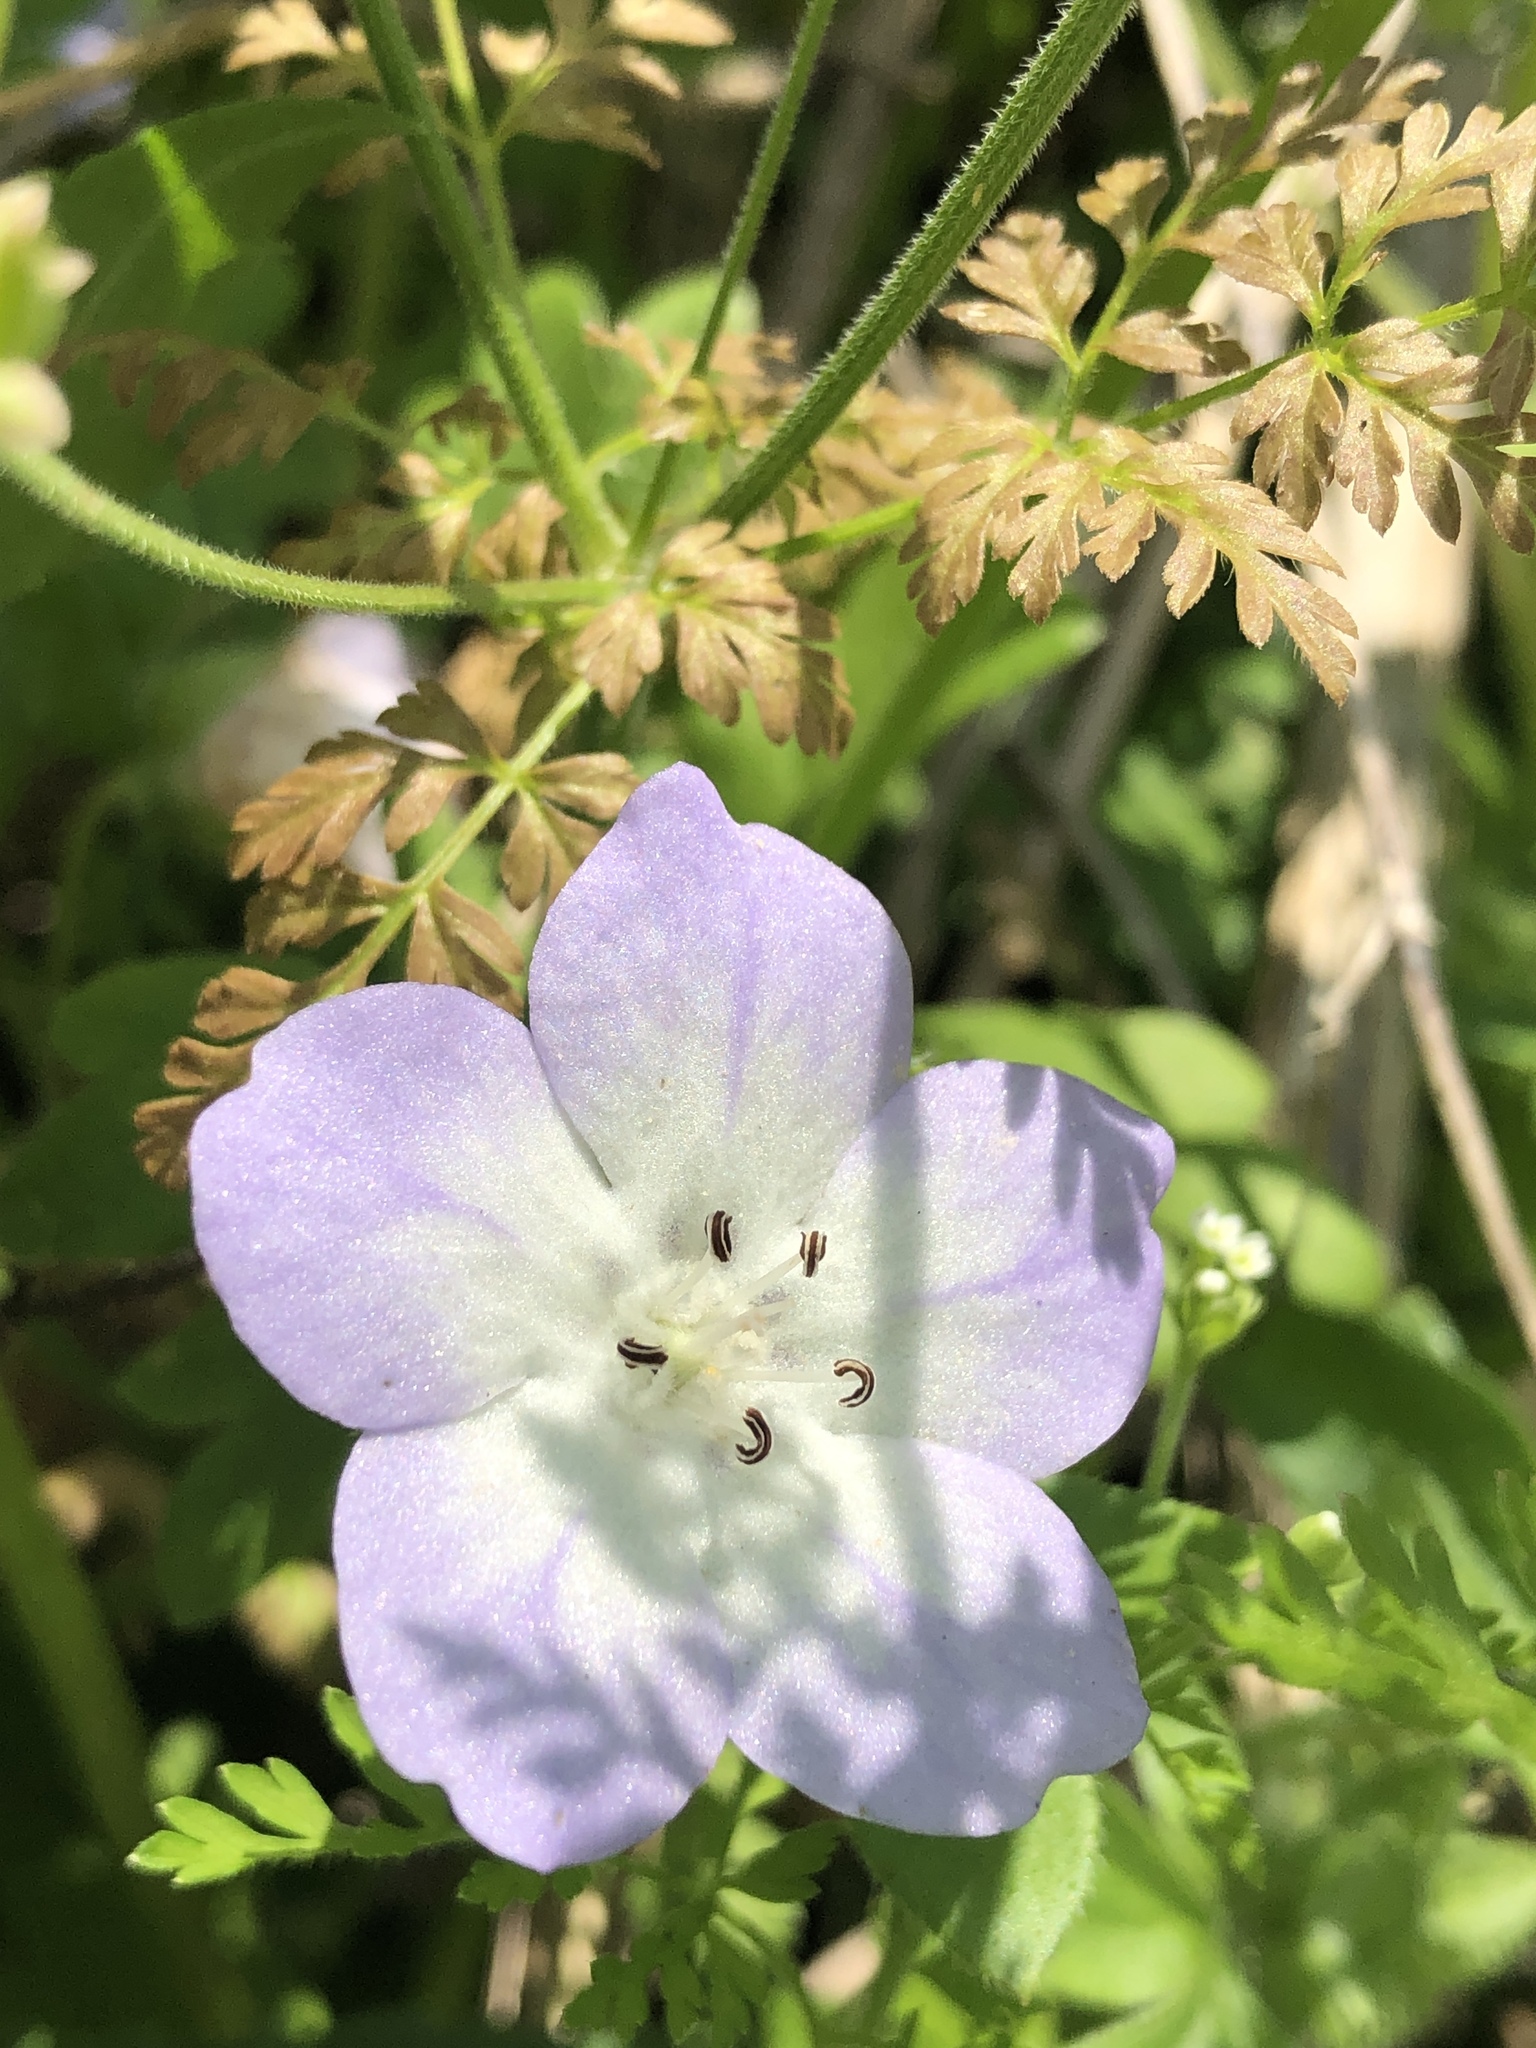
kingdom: Plantae
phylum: Tracheophyta
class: Magnoliopsida
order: Boraginales
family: Hydrophyllaceae
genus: Nemophila
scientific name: Nemophila phacelioides
